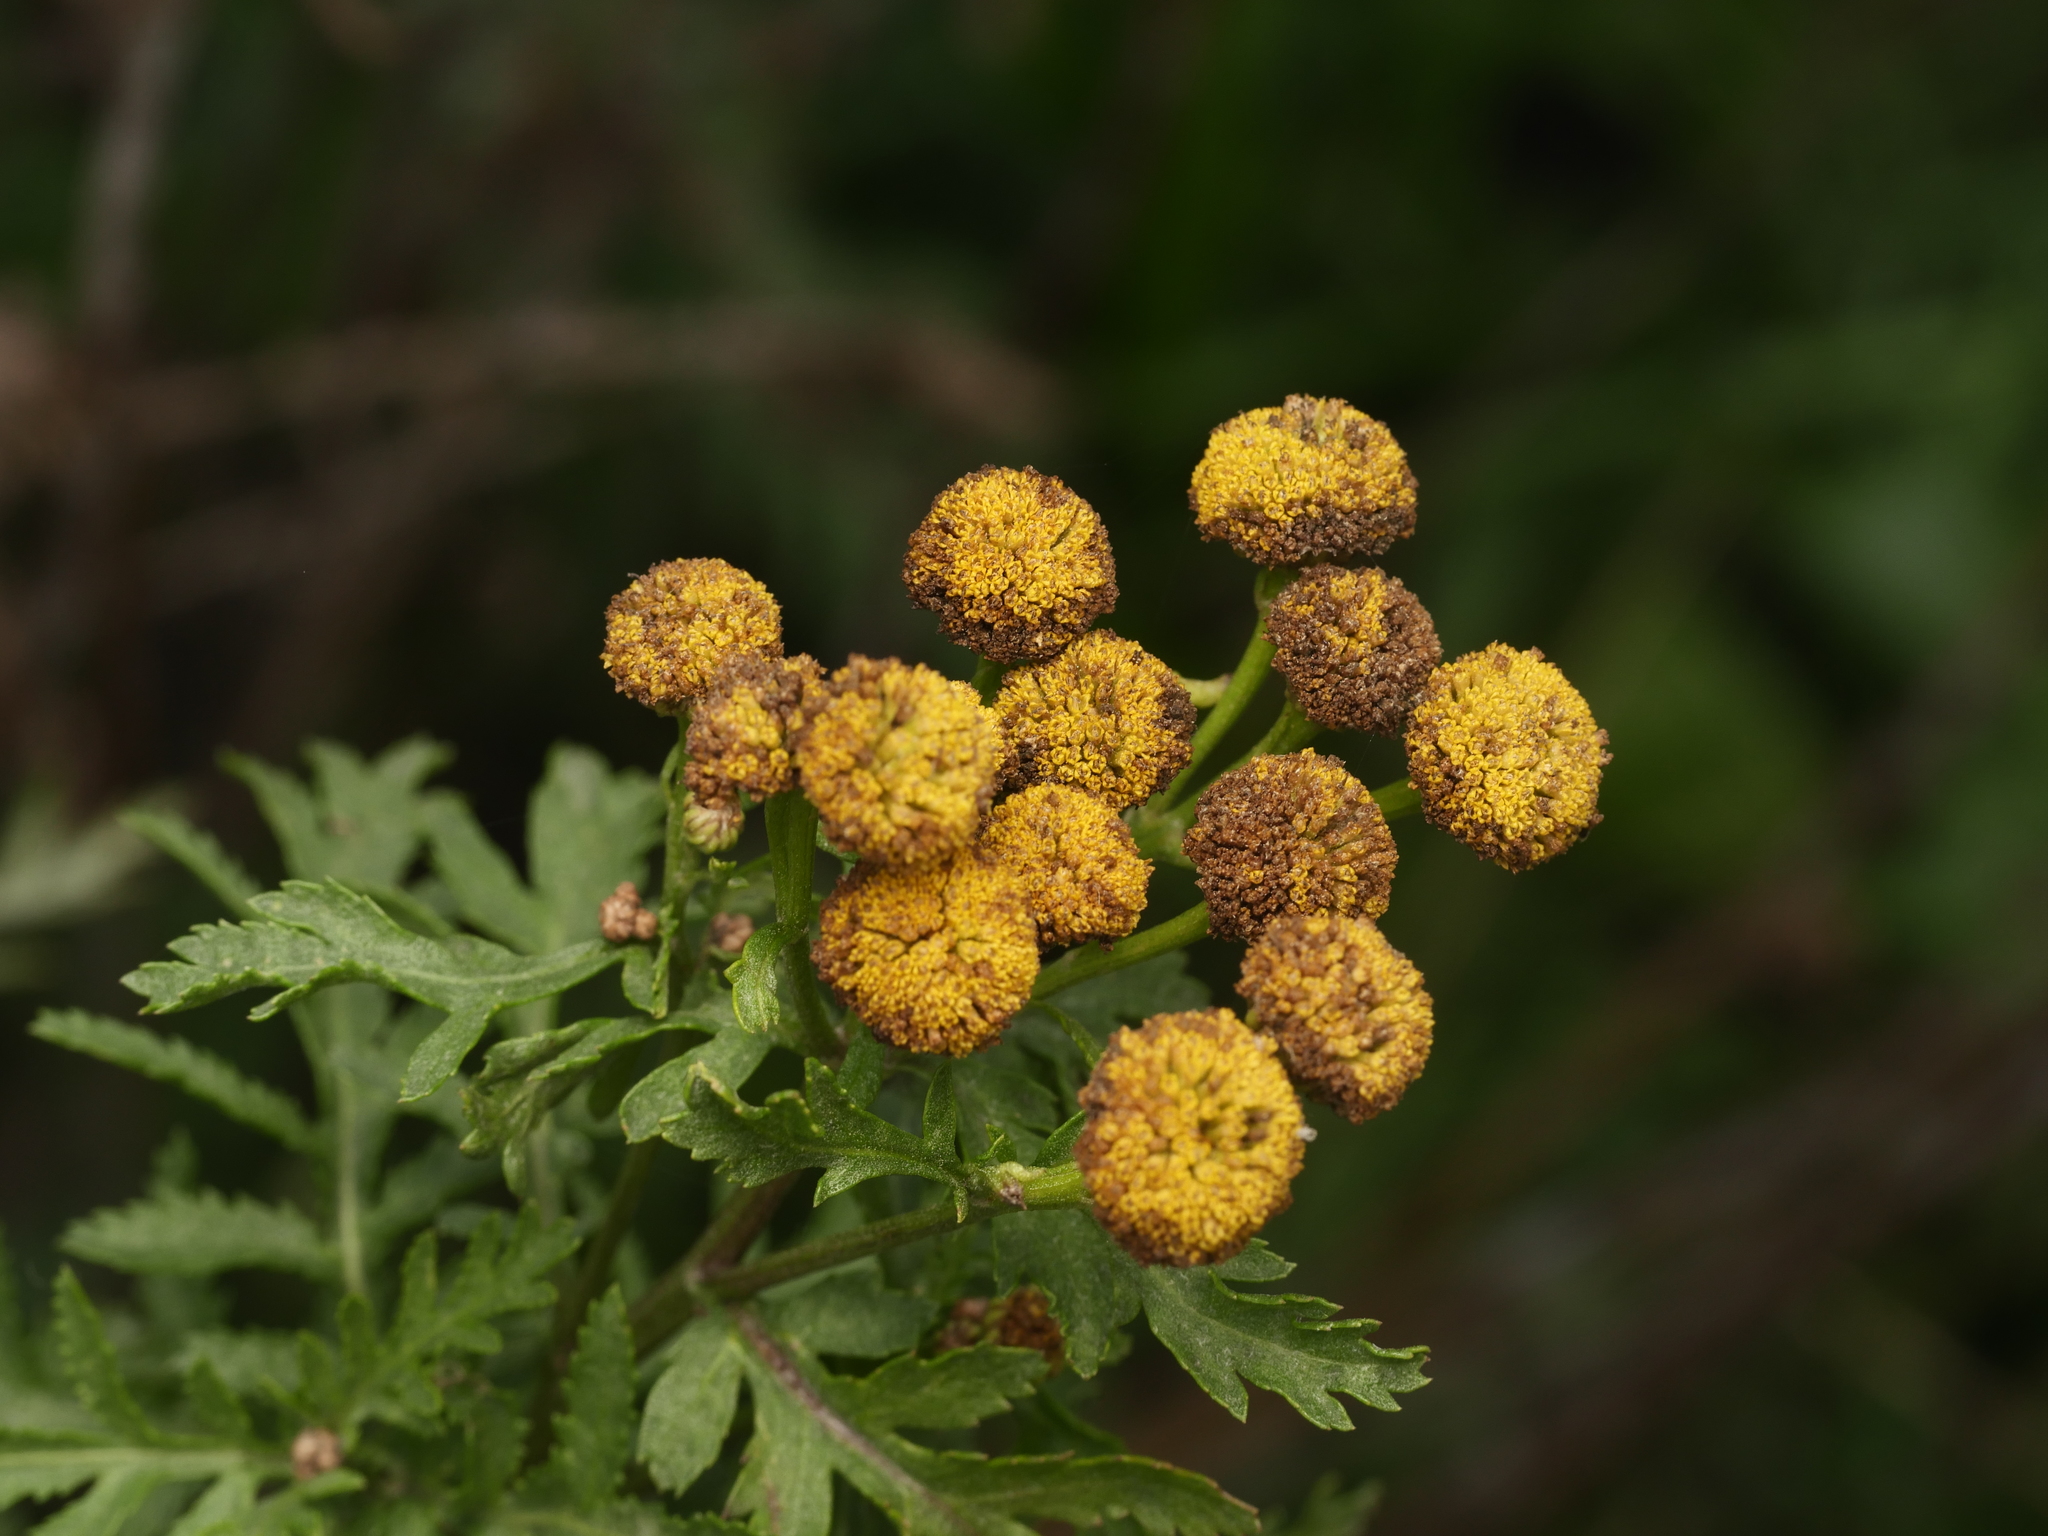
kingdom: Plantae
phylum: Tracheophyta
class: Magnoliopsida
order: Asterales
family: Asteraceae
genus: Tanacetum
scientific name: Tanacetum vulgare
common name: Common tansy
